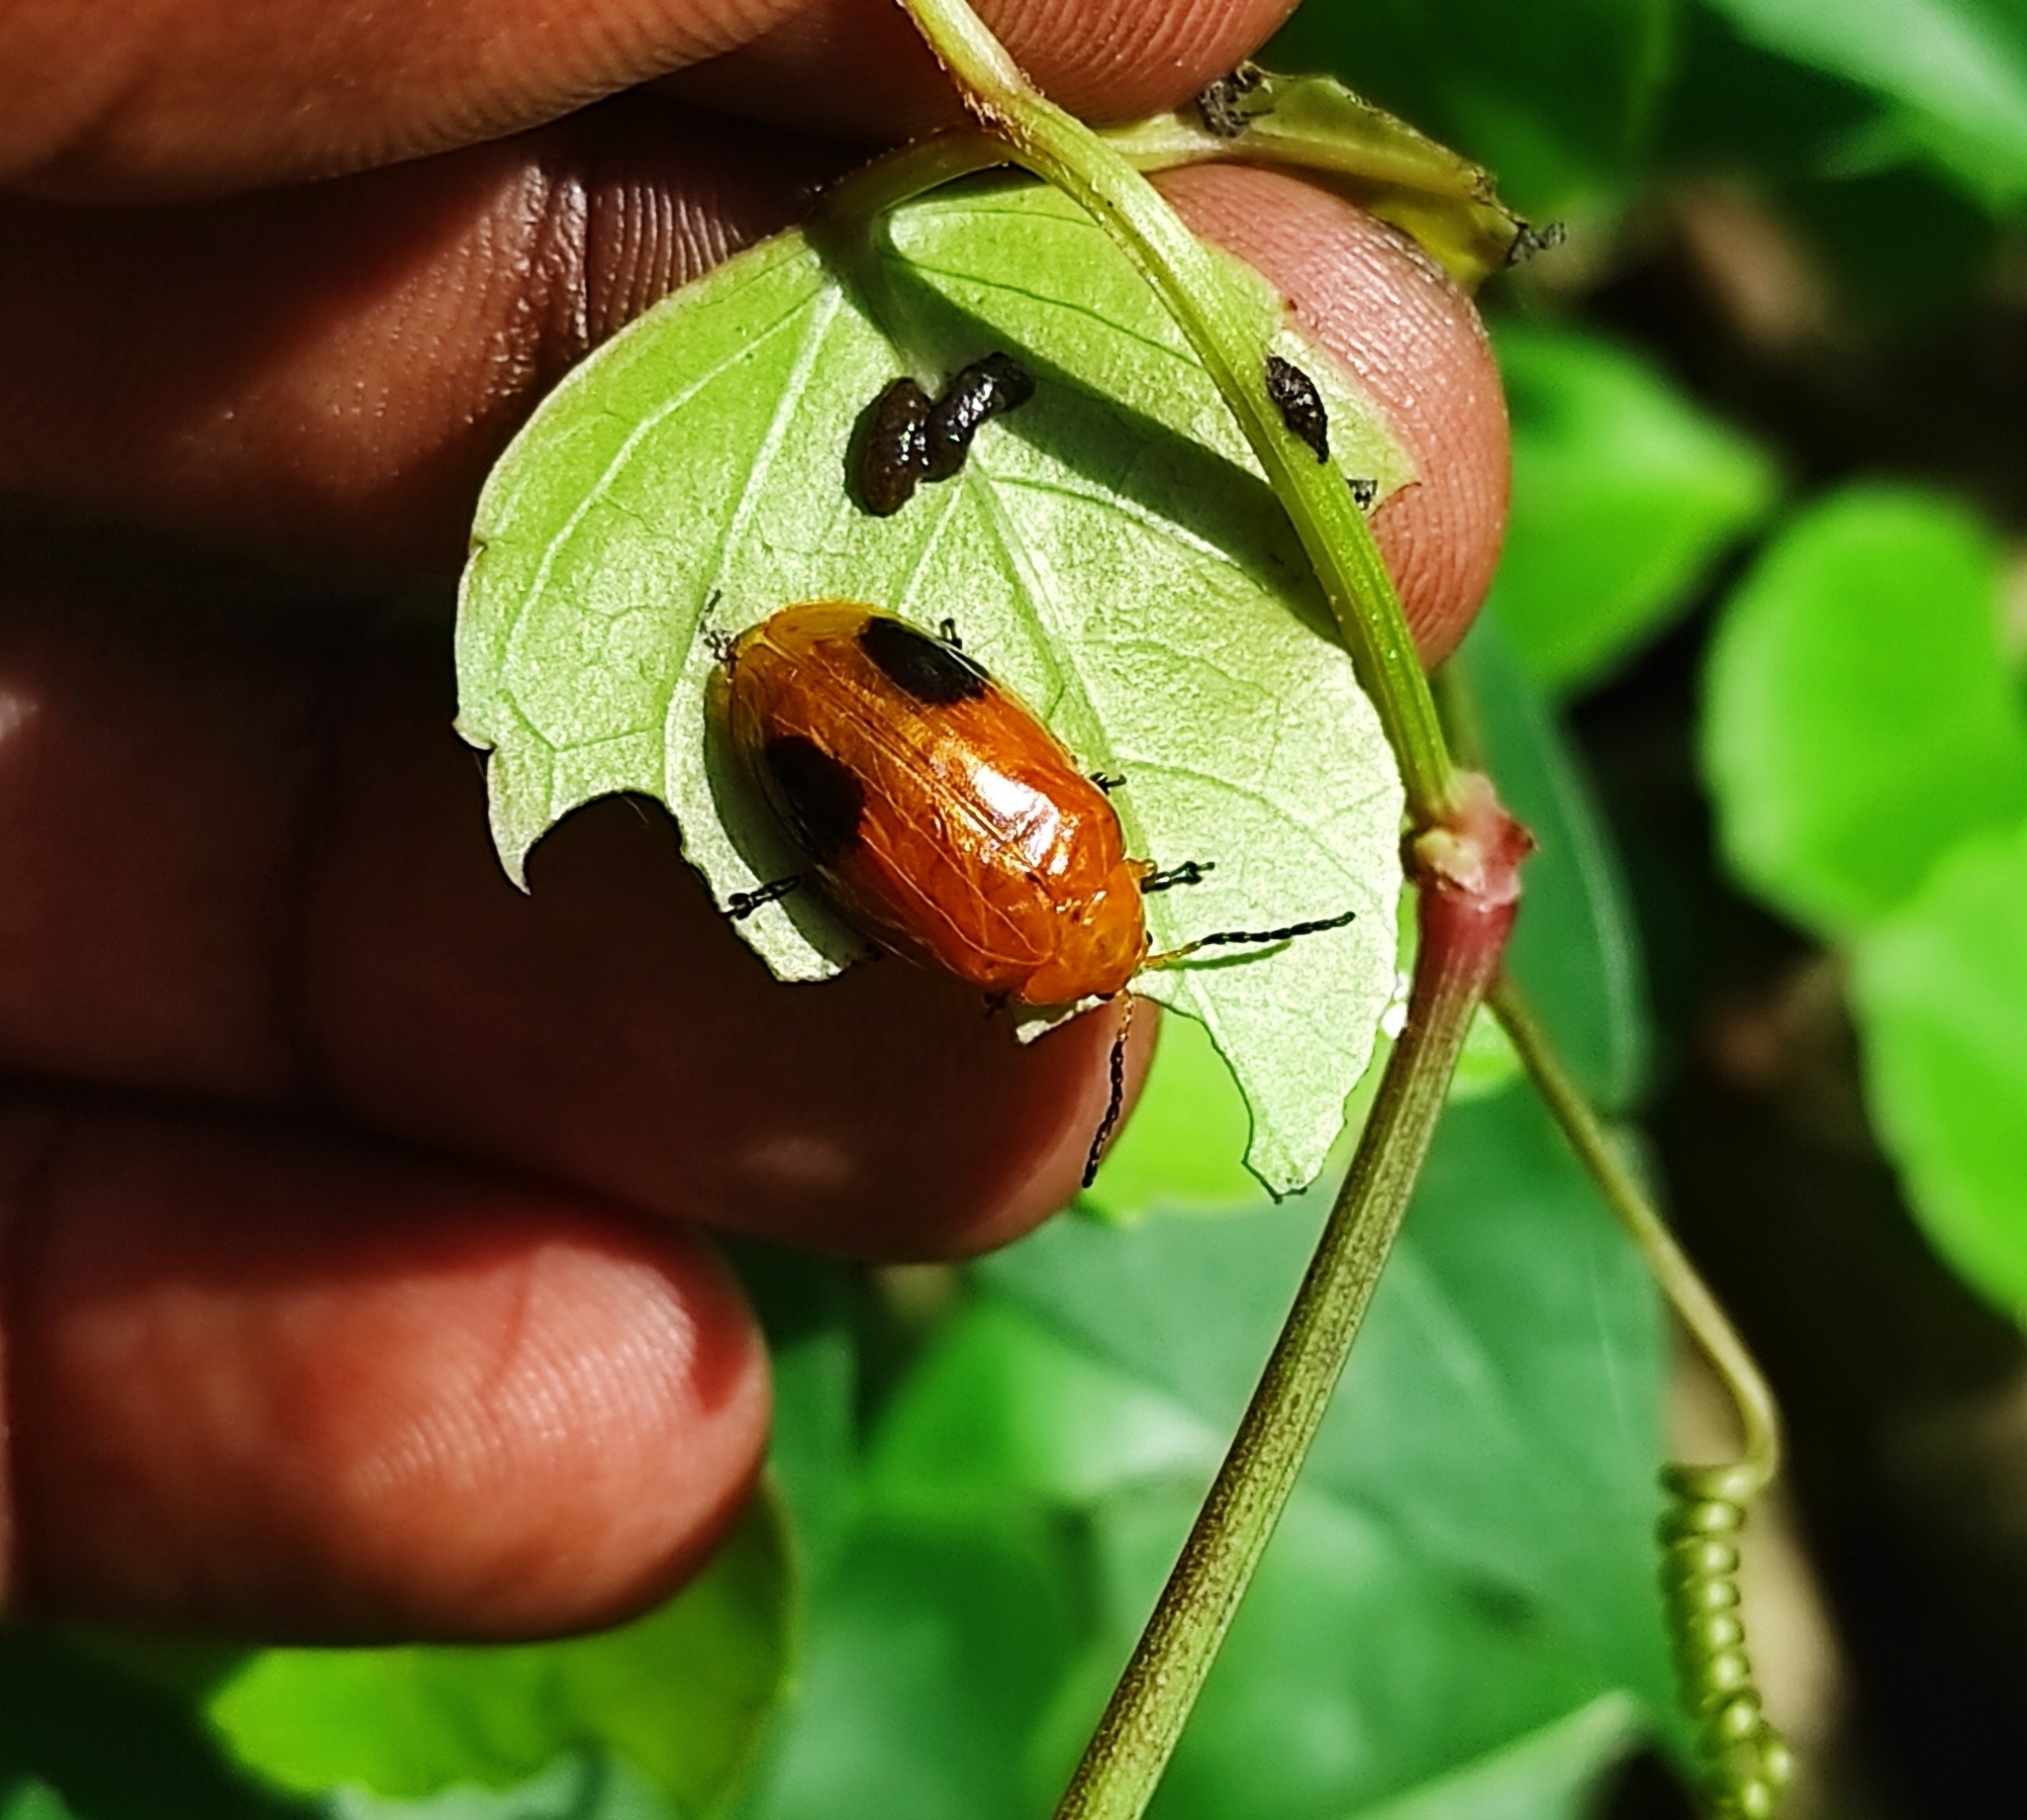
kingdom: Animalia
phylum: Arthropoda
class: Insecta
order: Coleoptera
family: Chrysomelidae
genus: Oides
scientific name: Oides palleata
